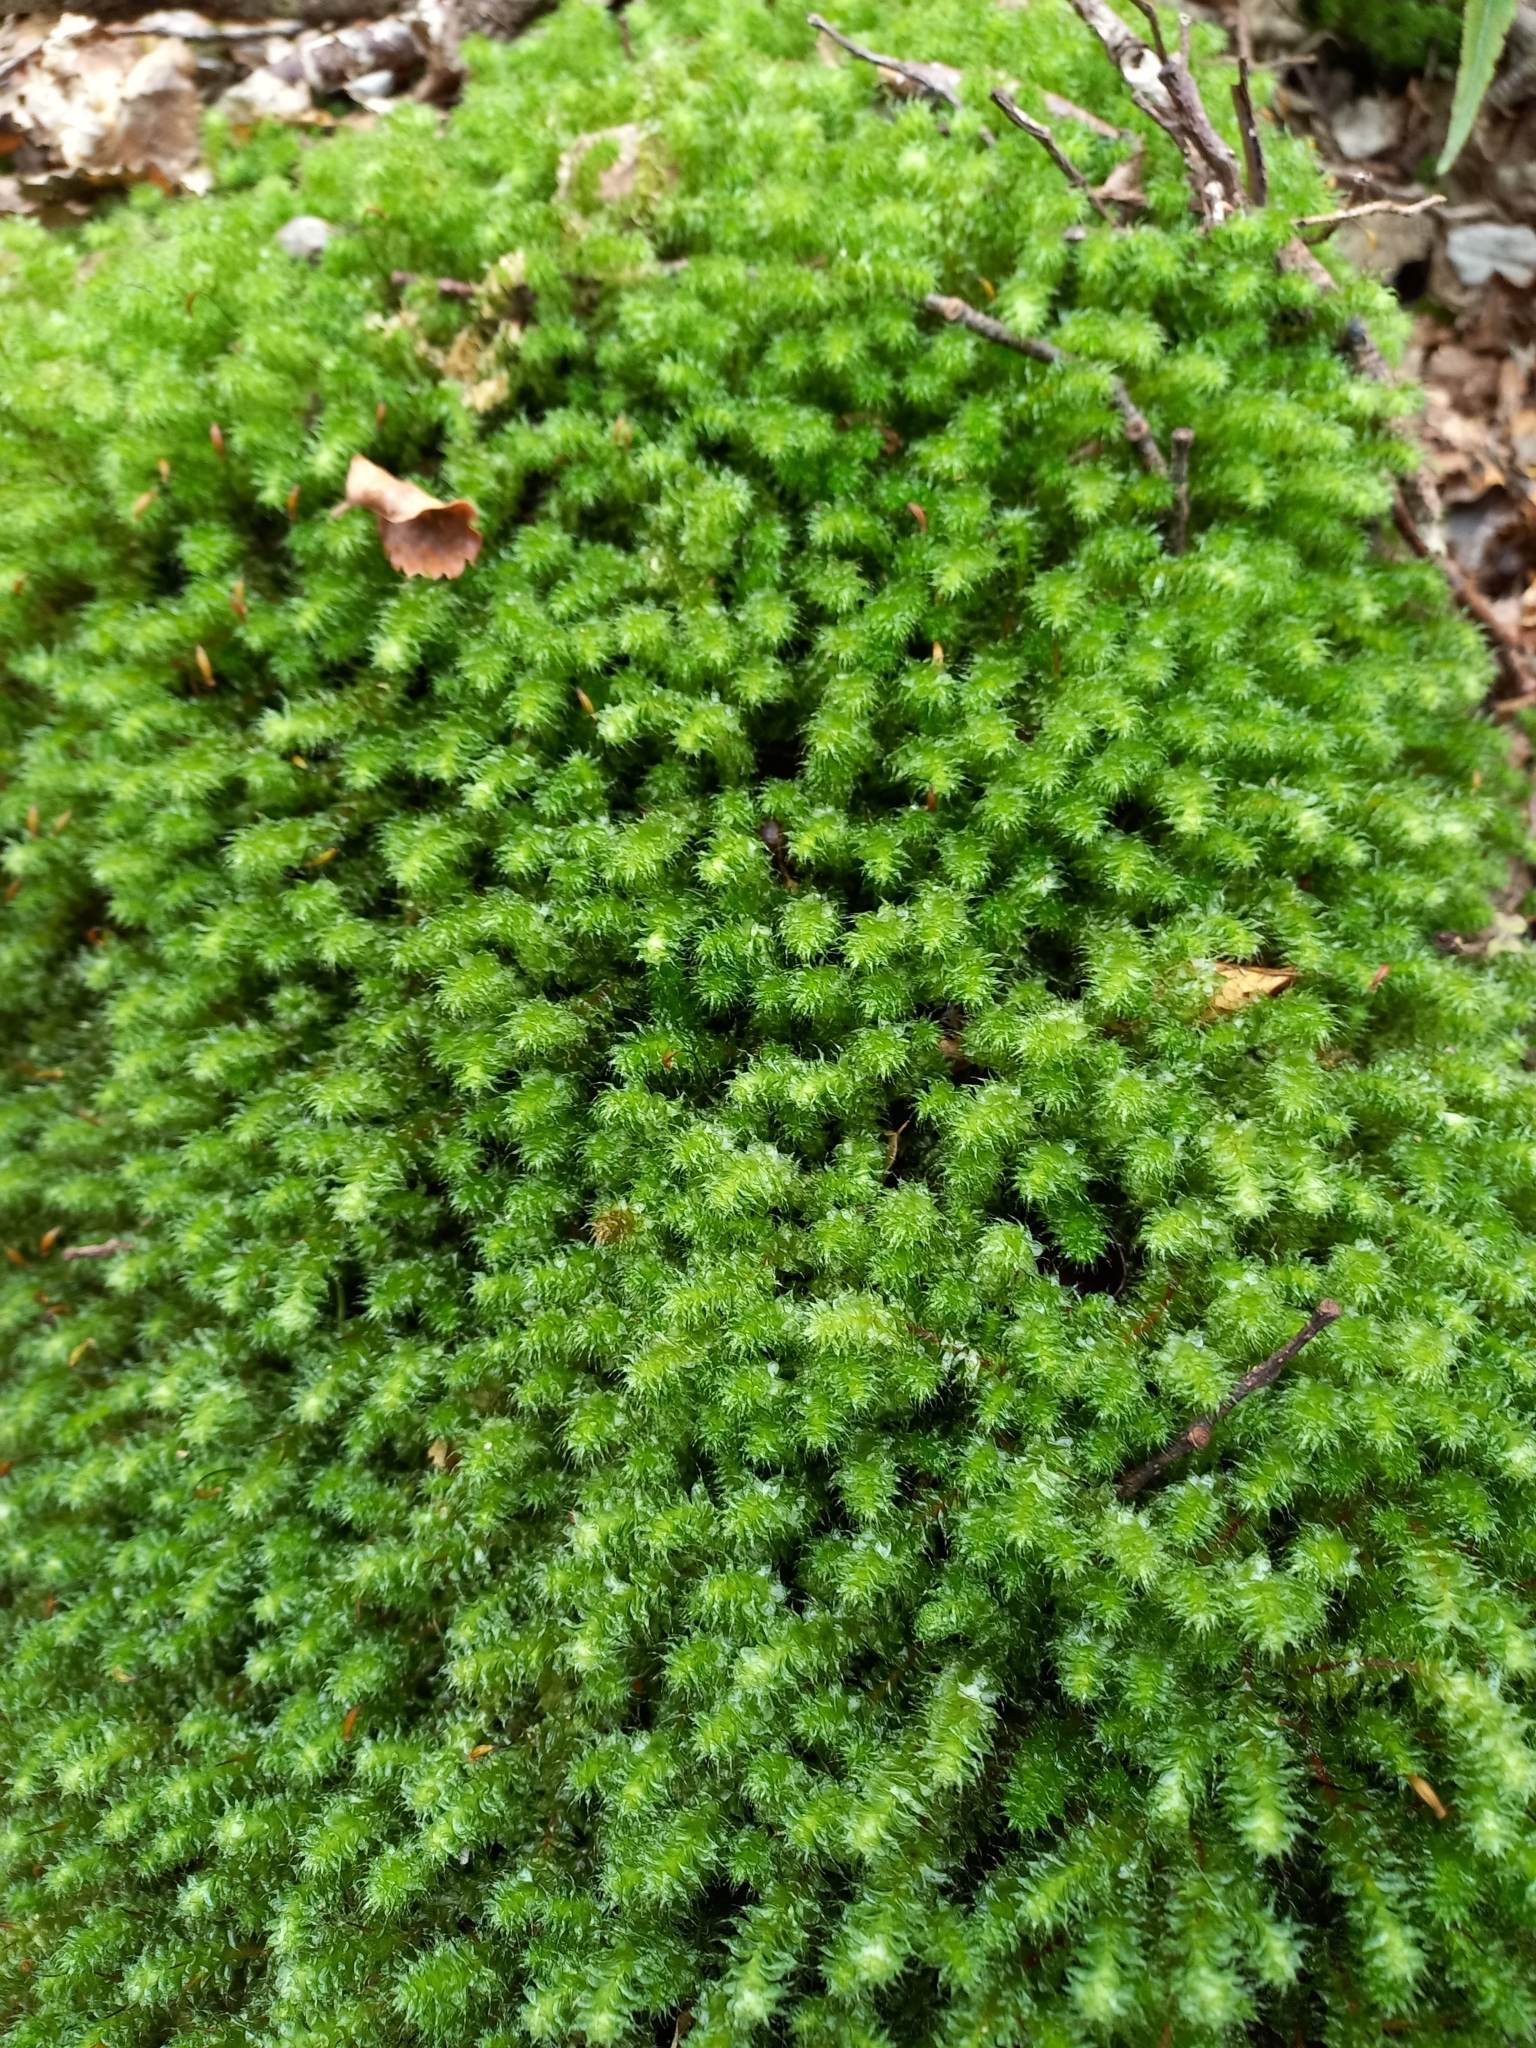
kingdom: Plantae
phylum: Bryophyta
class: Bryopsida
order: Ptychomniales
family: Ptychomniaceae
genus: Ptychomnion
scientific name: Ptychomnion aciculare
